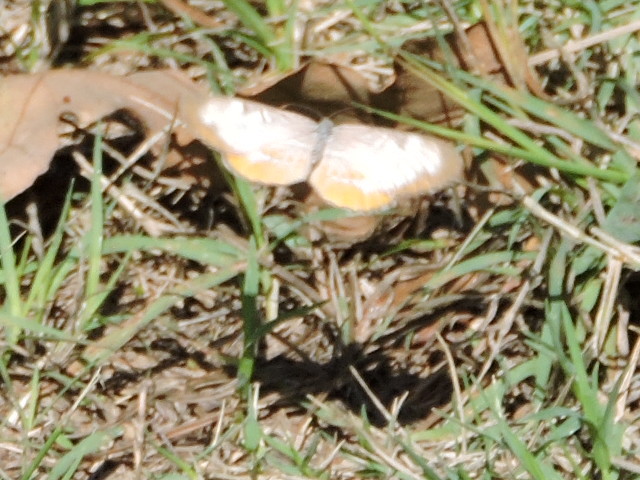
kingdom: Animalia
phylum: Arthropoda
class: Insecta
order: Lepidoptera
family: Nymphalidae
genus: Mestra
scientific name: Mestra amymone
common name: Common mestra
